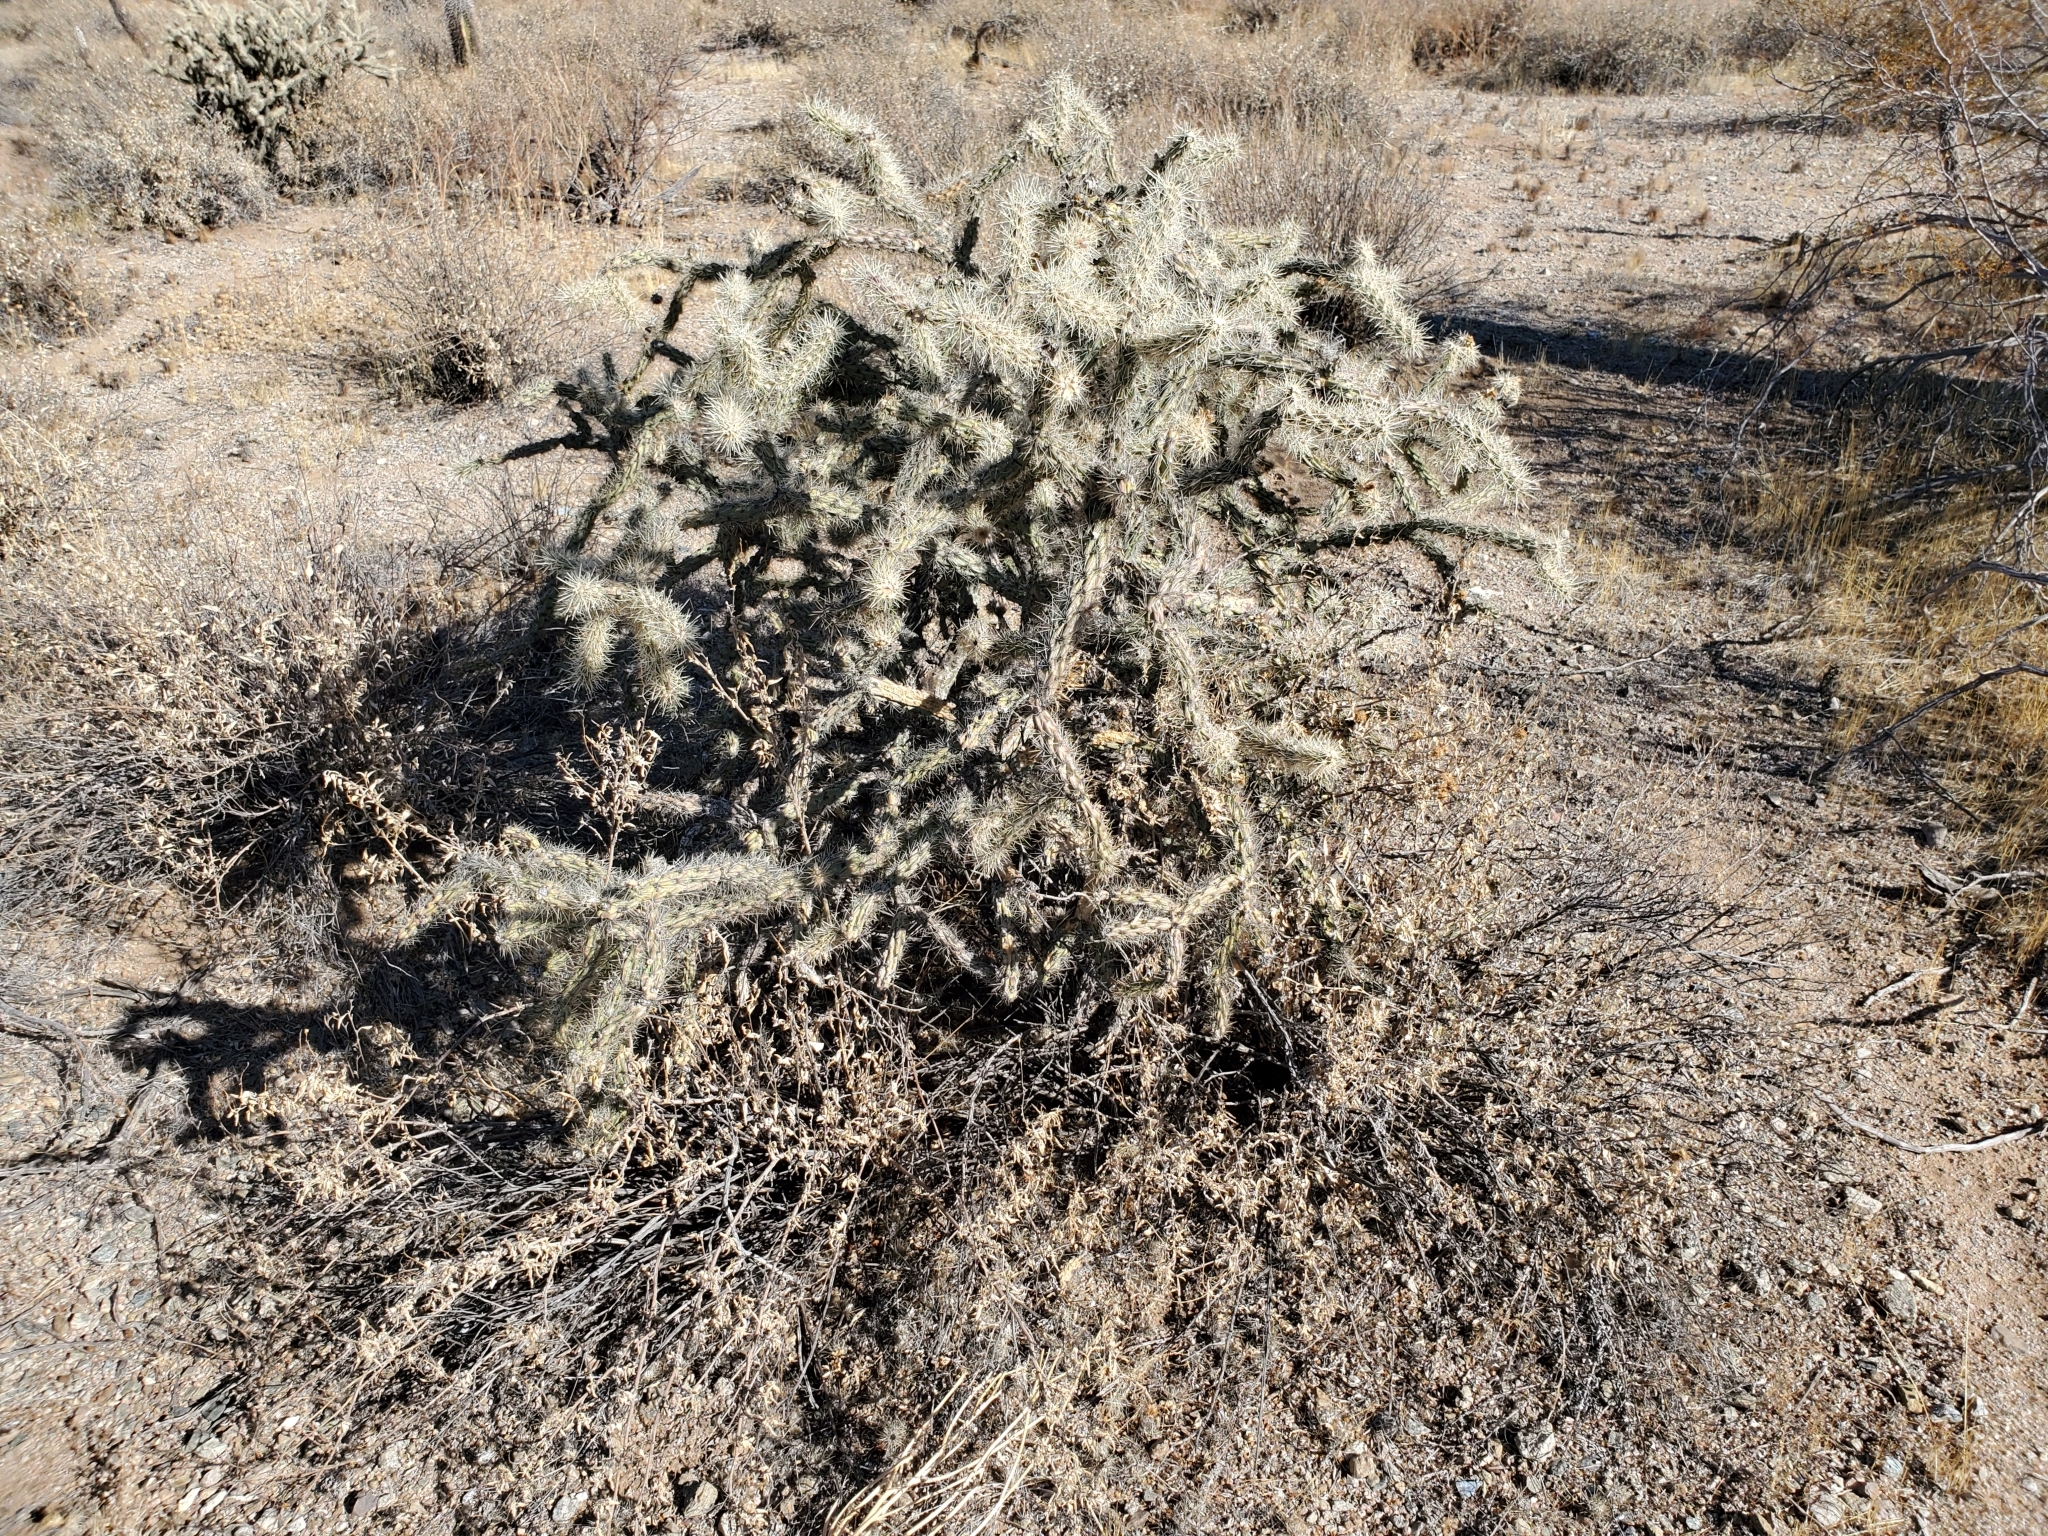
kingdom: Plantae
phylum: Tracheophyta
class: Magnoliopsida
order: Caryophyllales
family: Cactaceae
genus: Cylindropuntia
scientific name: Cylindropuntia acanthocarpa
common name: Buckhorn cholla
